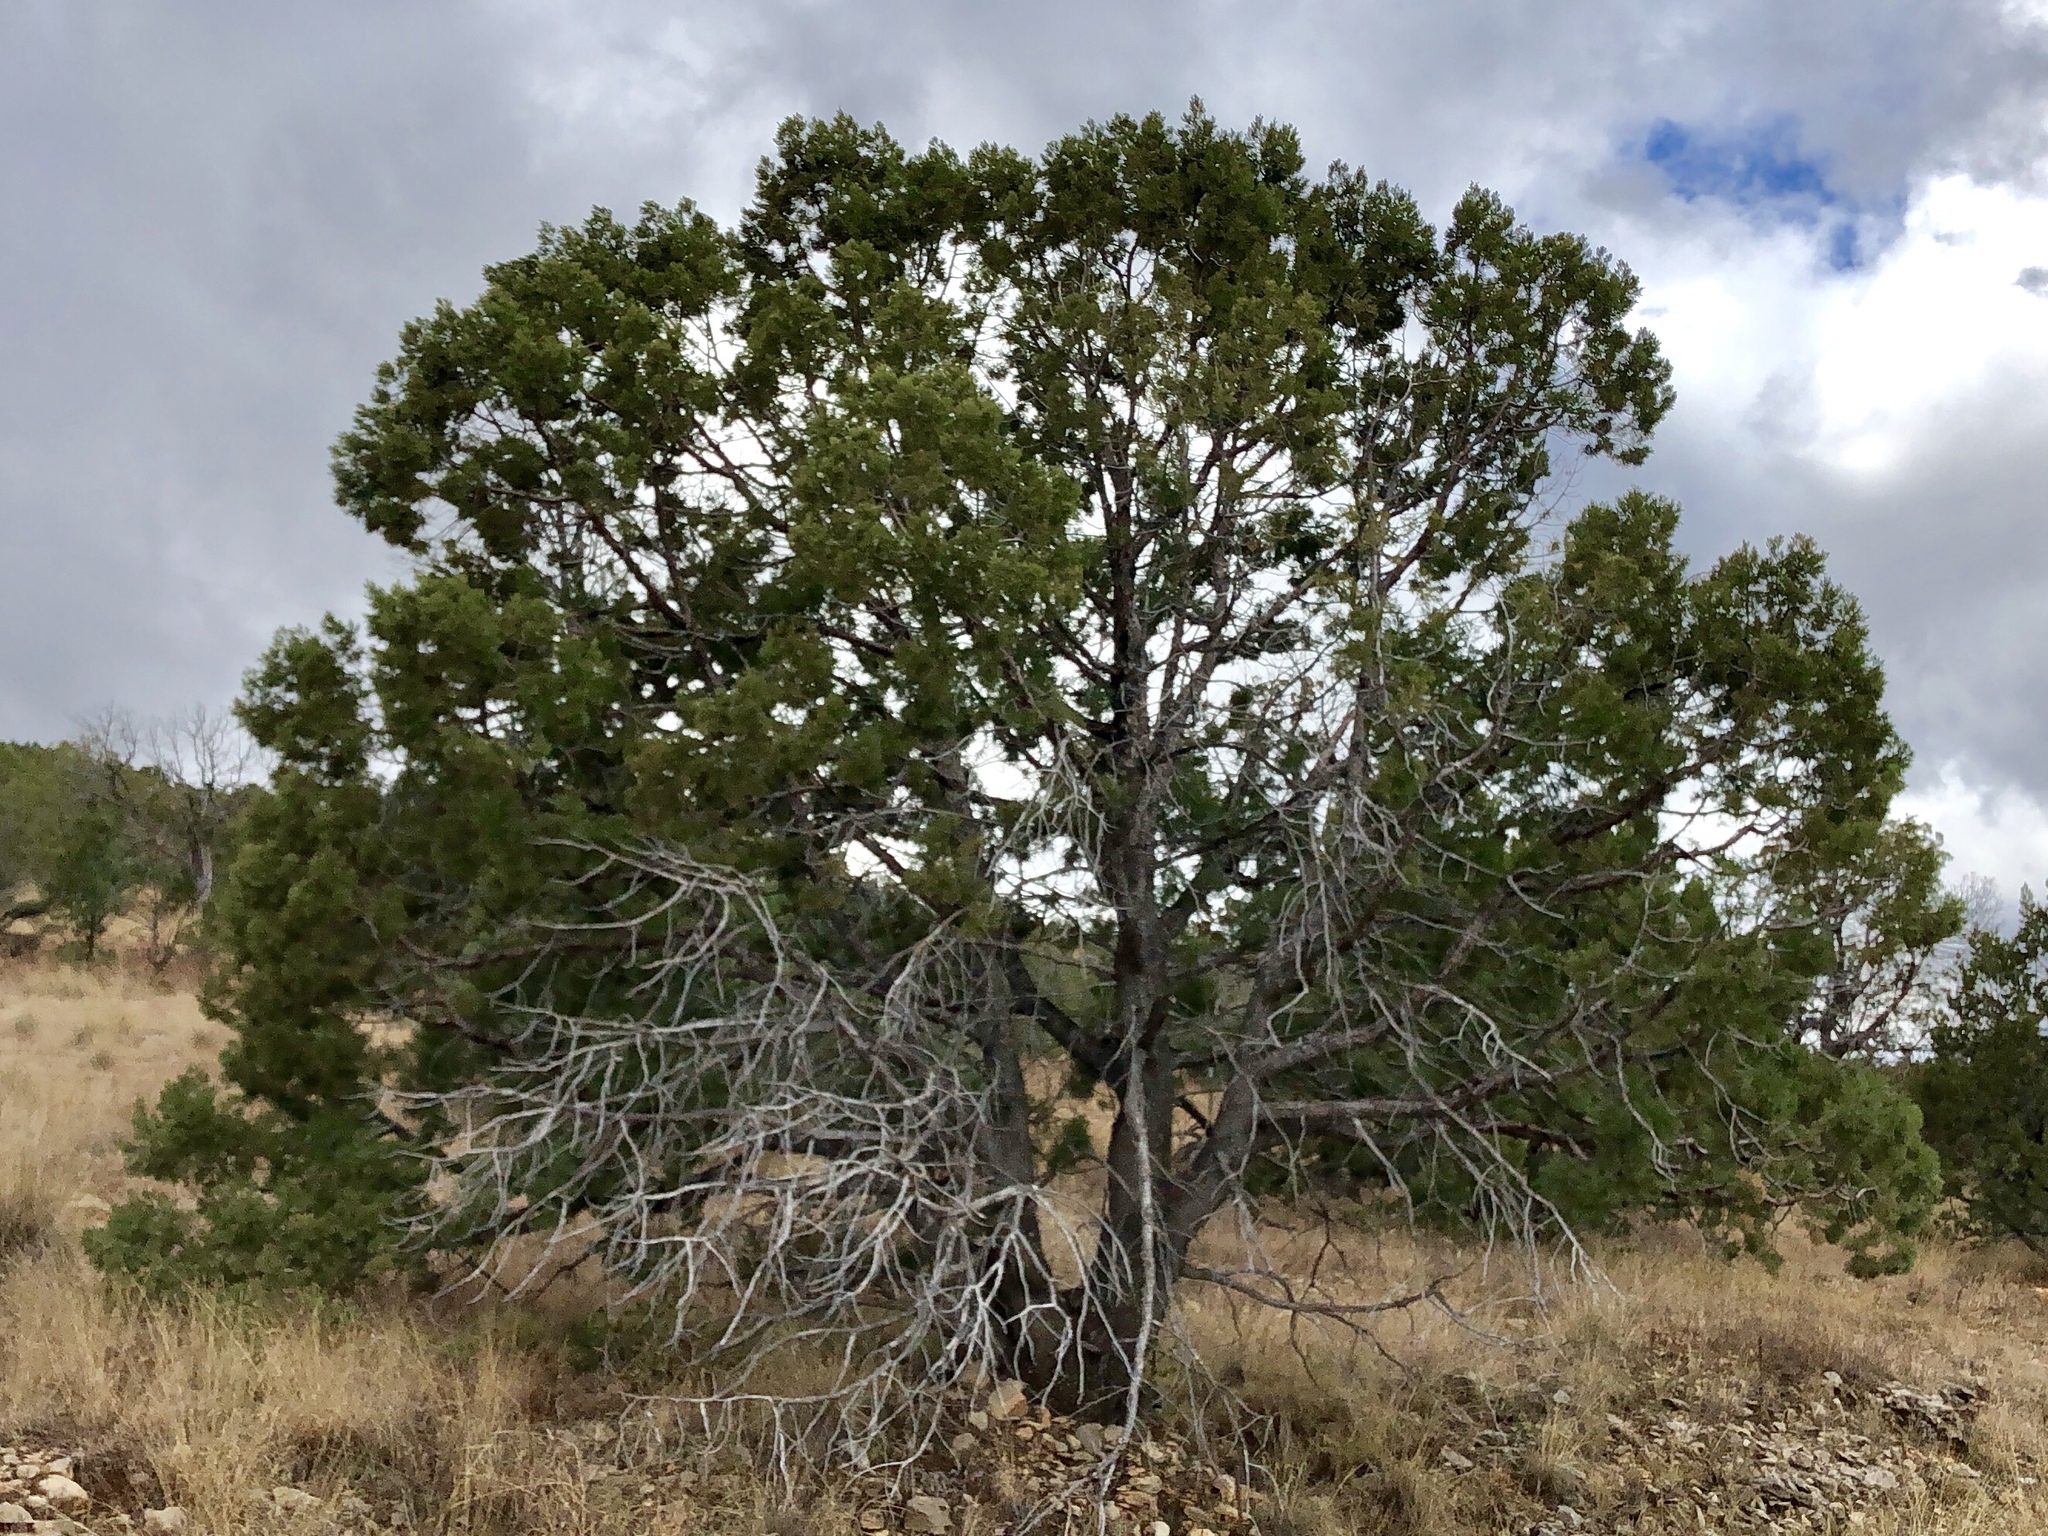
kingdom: Plantae
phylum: Tracheophyta
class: Pinopsida
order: Pinales
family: Cupressaceae
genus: Juniperus
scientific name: Juniperus deppeana
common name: Alligator juniper
